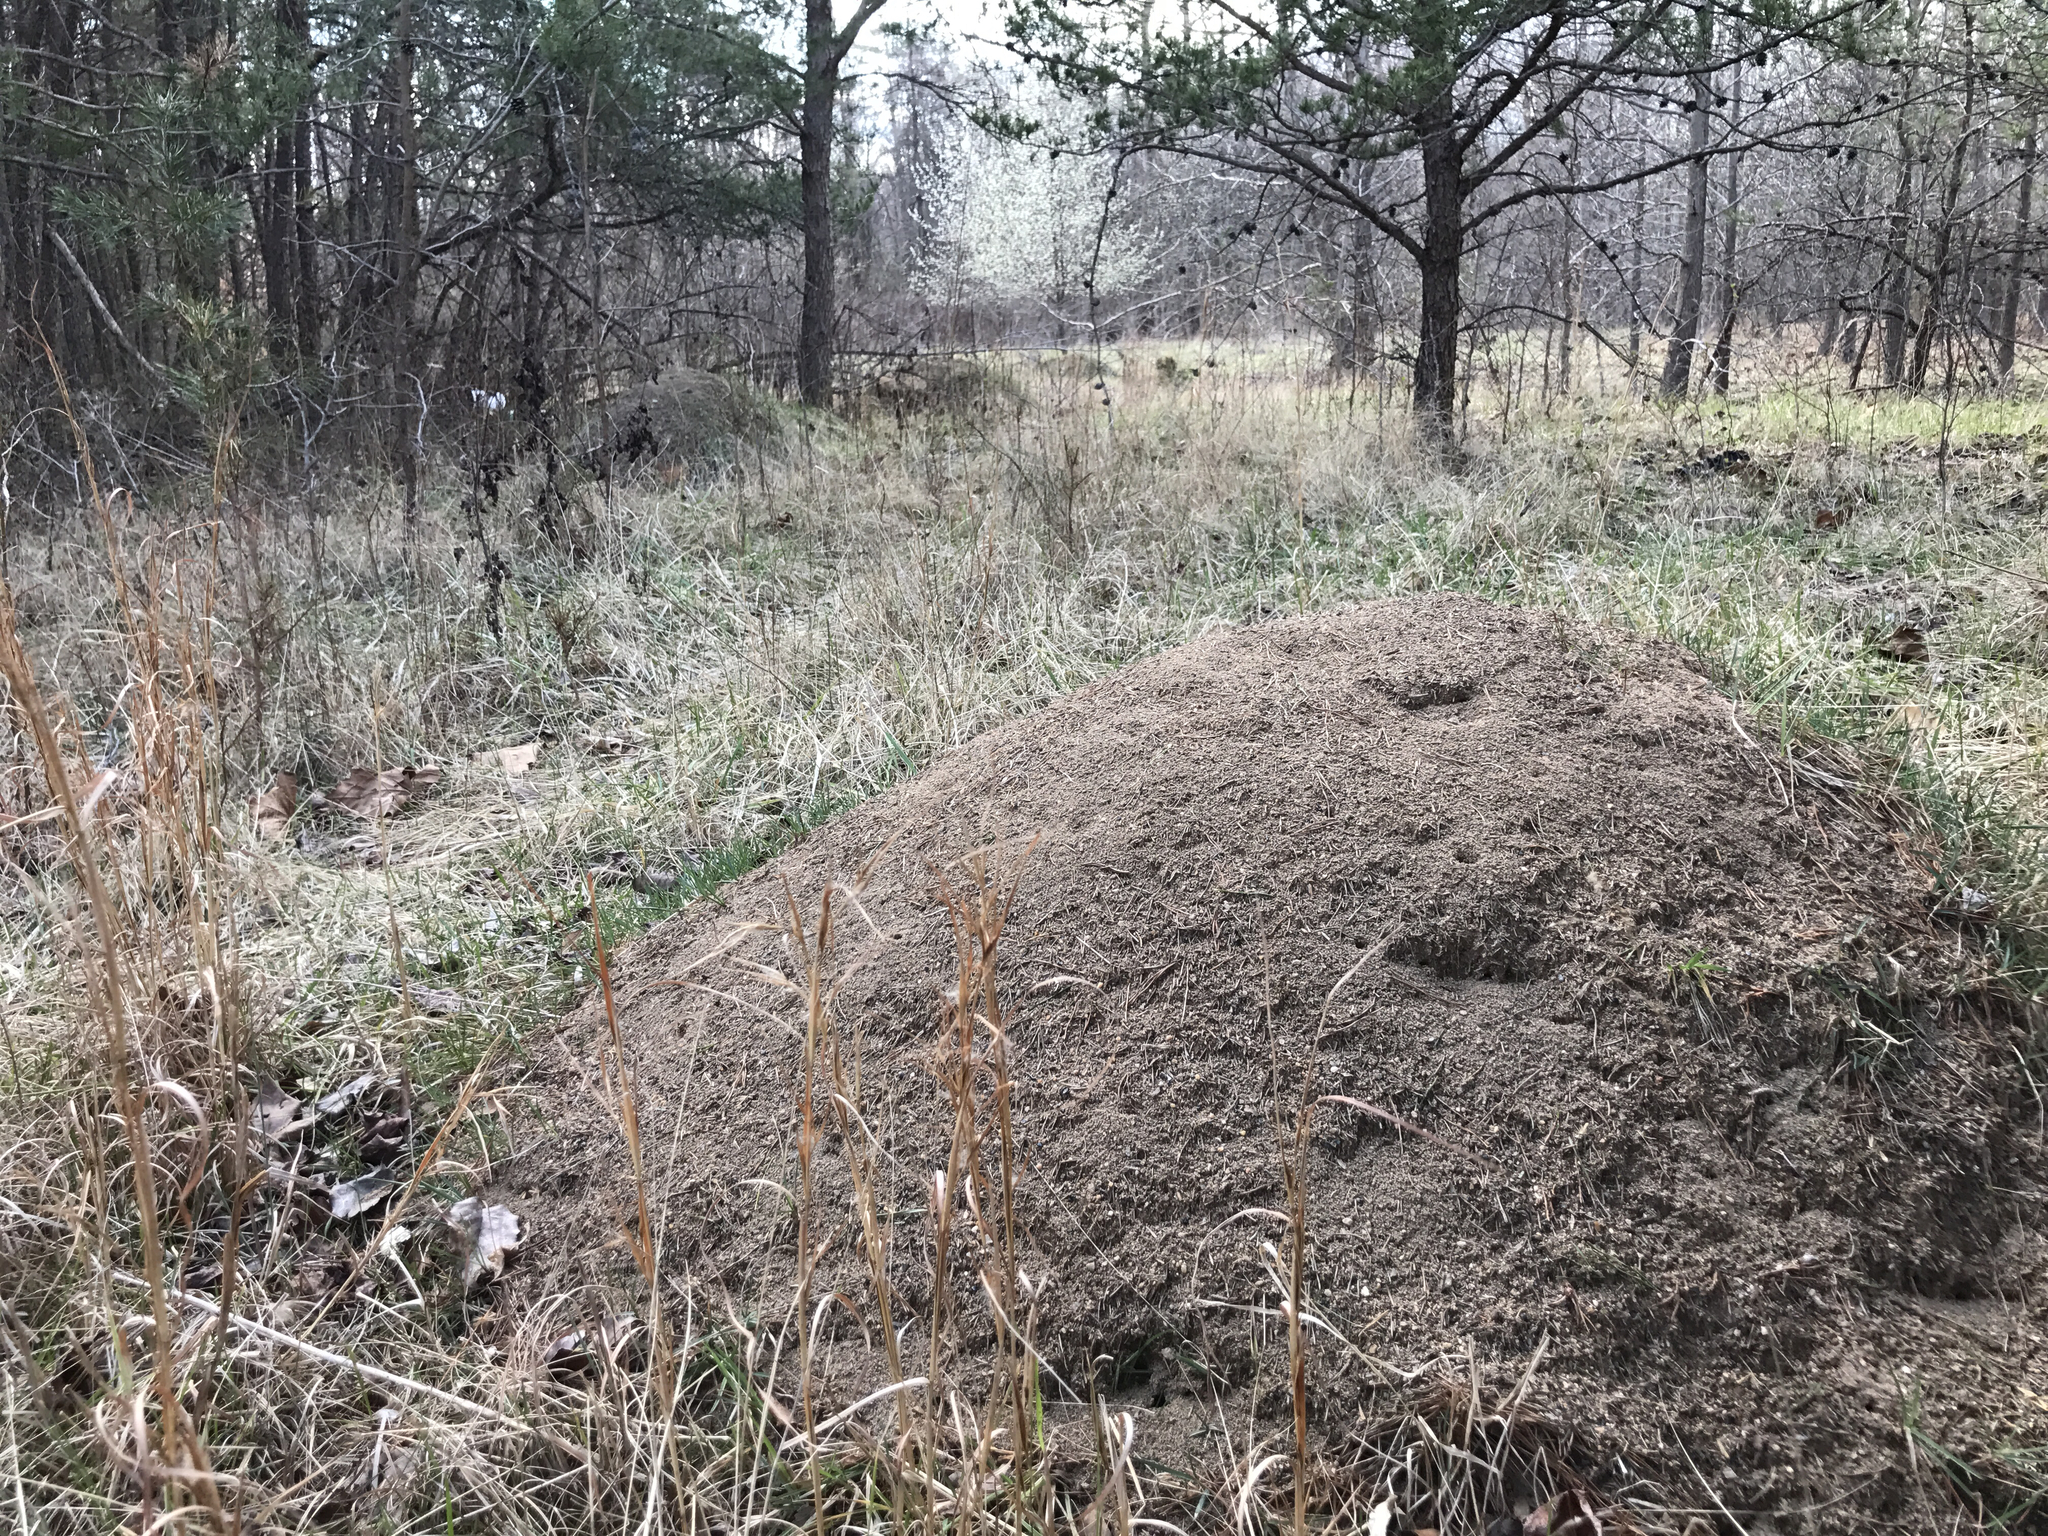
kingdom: Animalia
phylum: Arthropoda
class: Insecta
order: Hymenoptera
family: Formicidae
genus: Formica
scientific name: Formica exsectoides
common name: Allegheny mound ant
